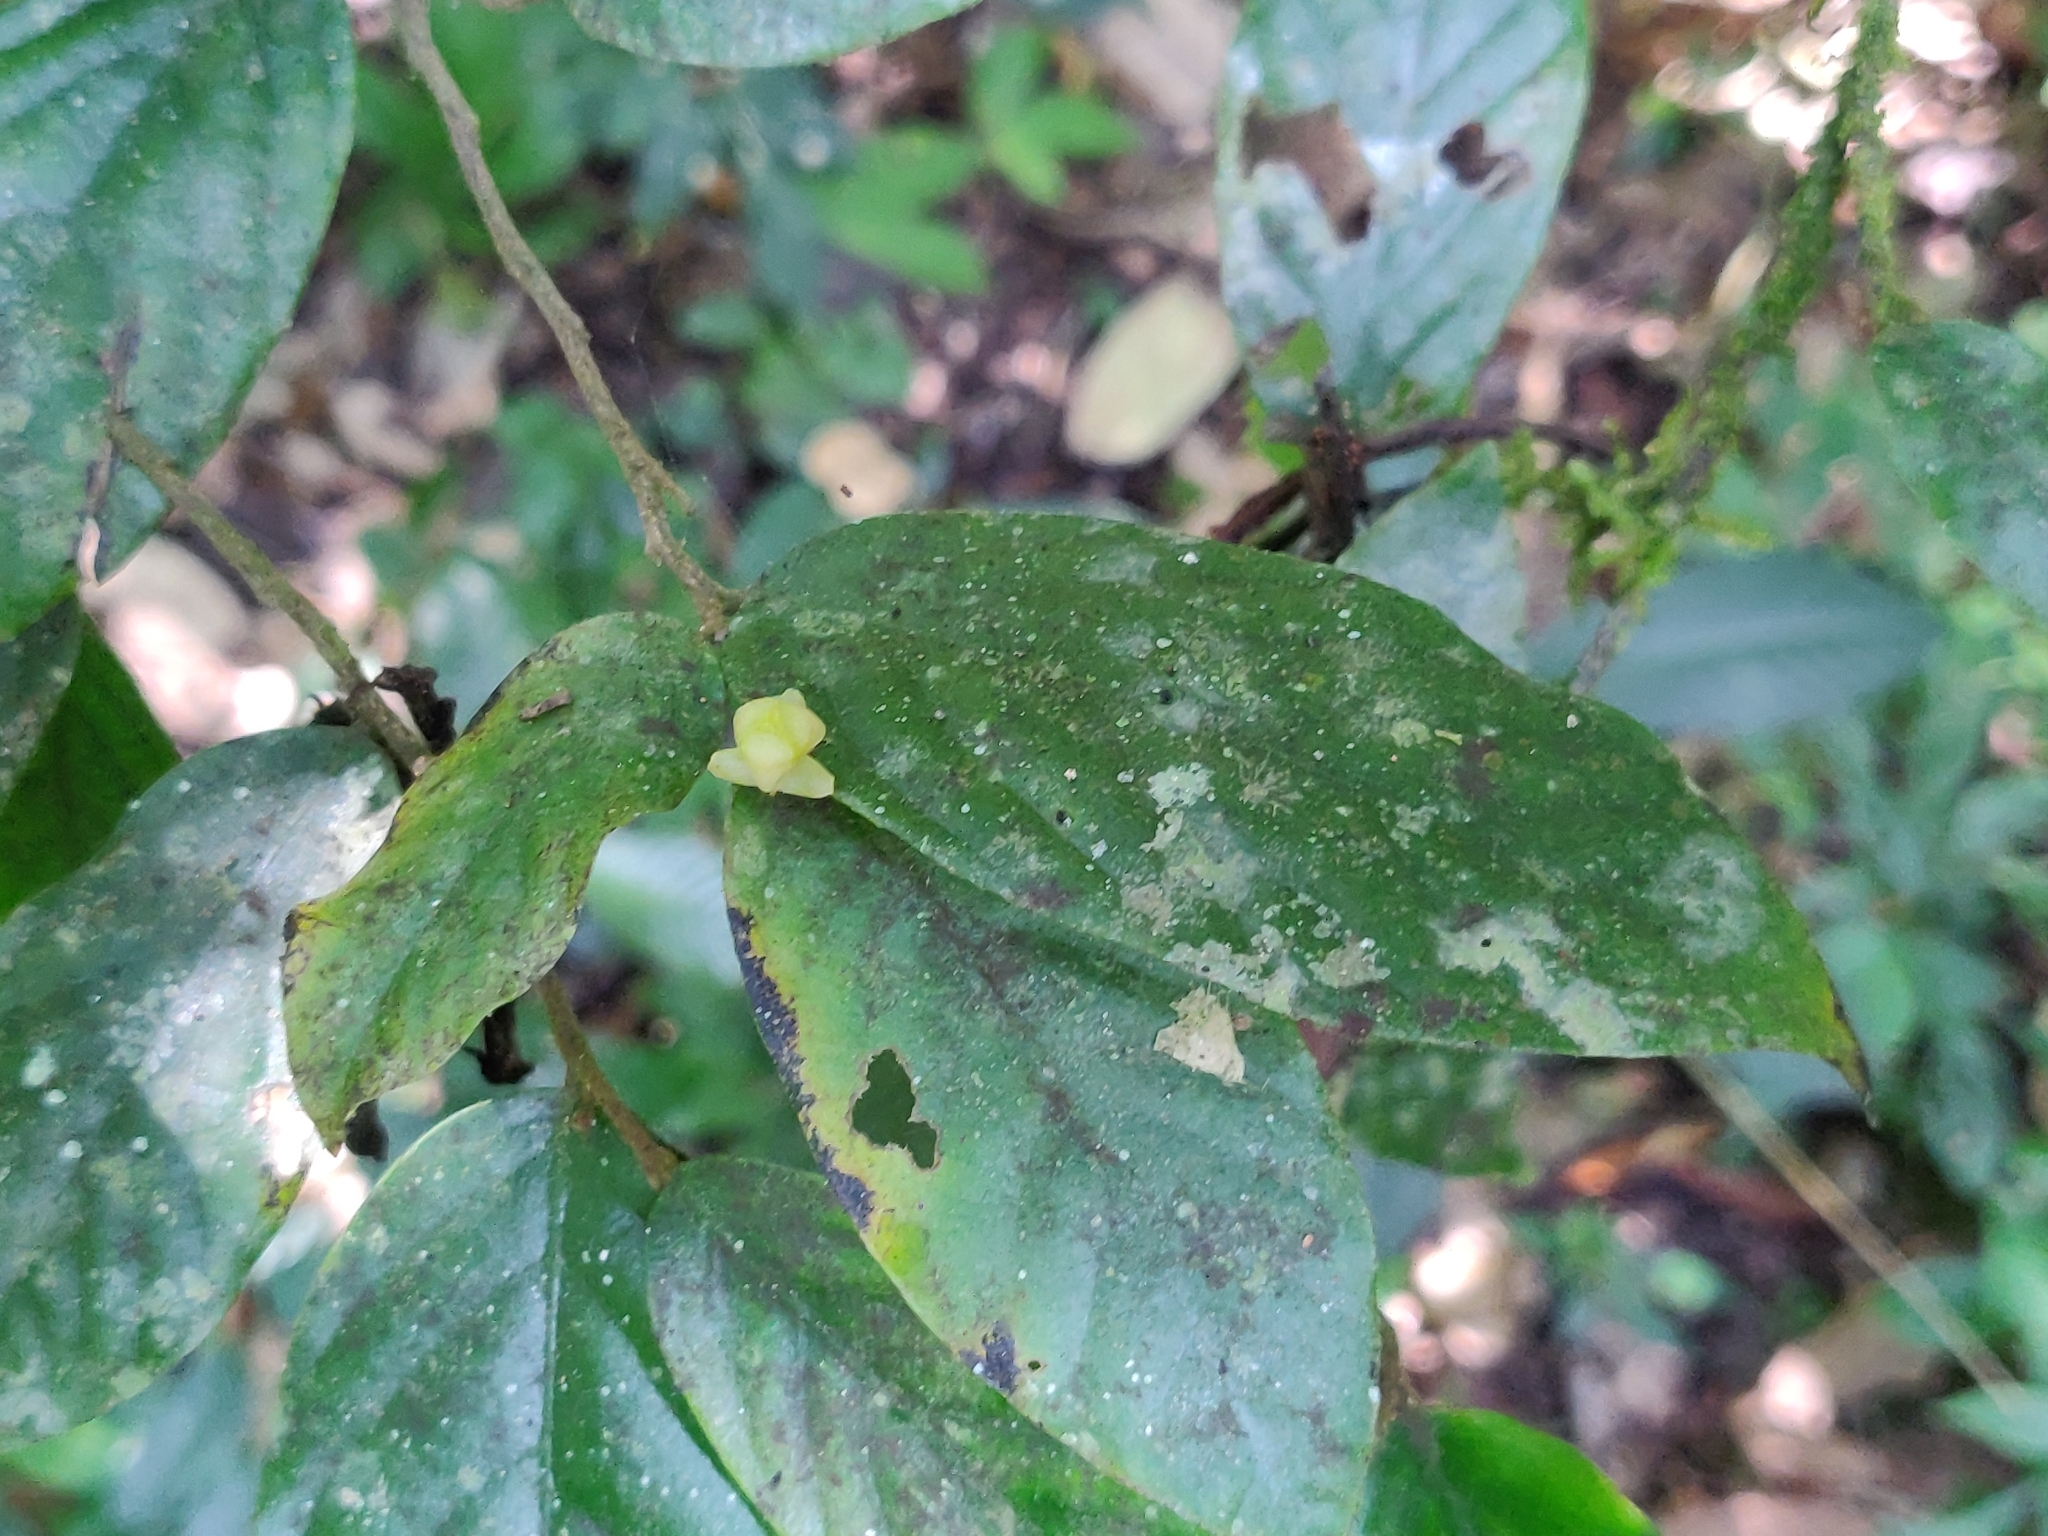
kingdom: Plantae
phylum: Tracheophyta
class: Magnoliopsida
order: Magnoliales
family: Annonaceae
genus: Orophea
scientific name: Orophea erythrocarpa
